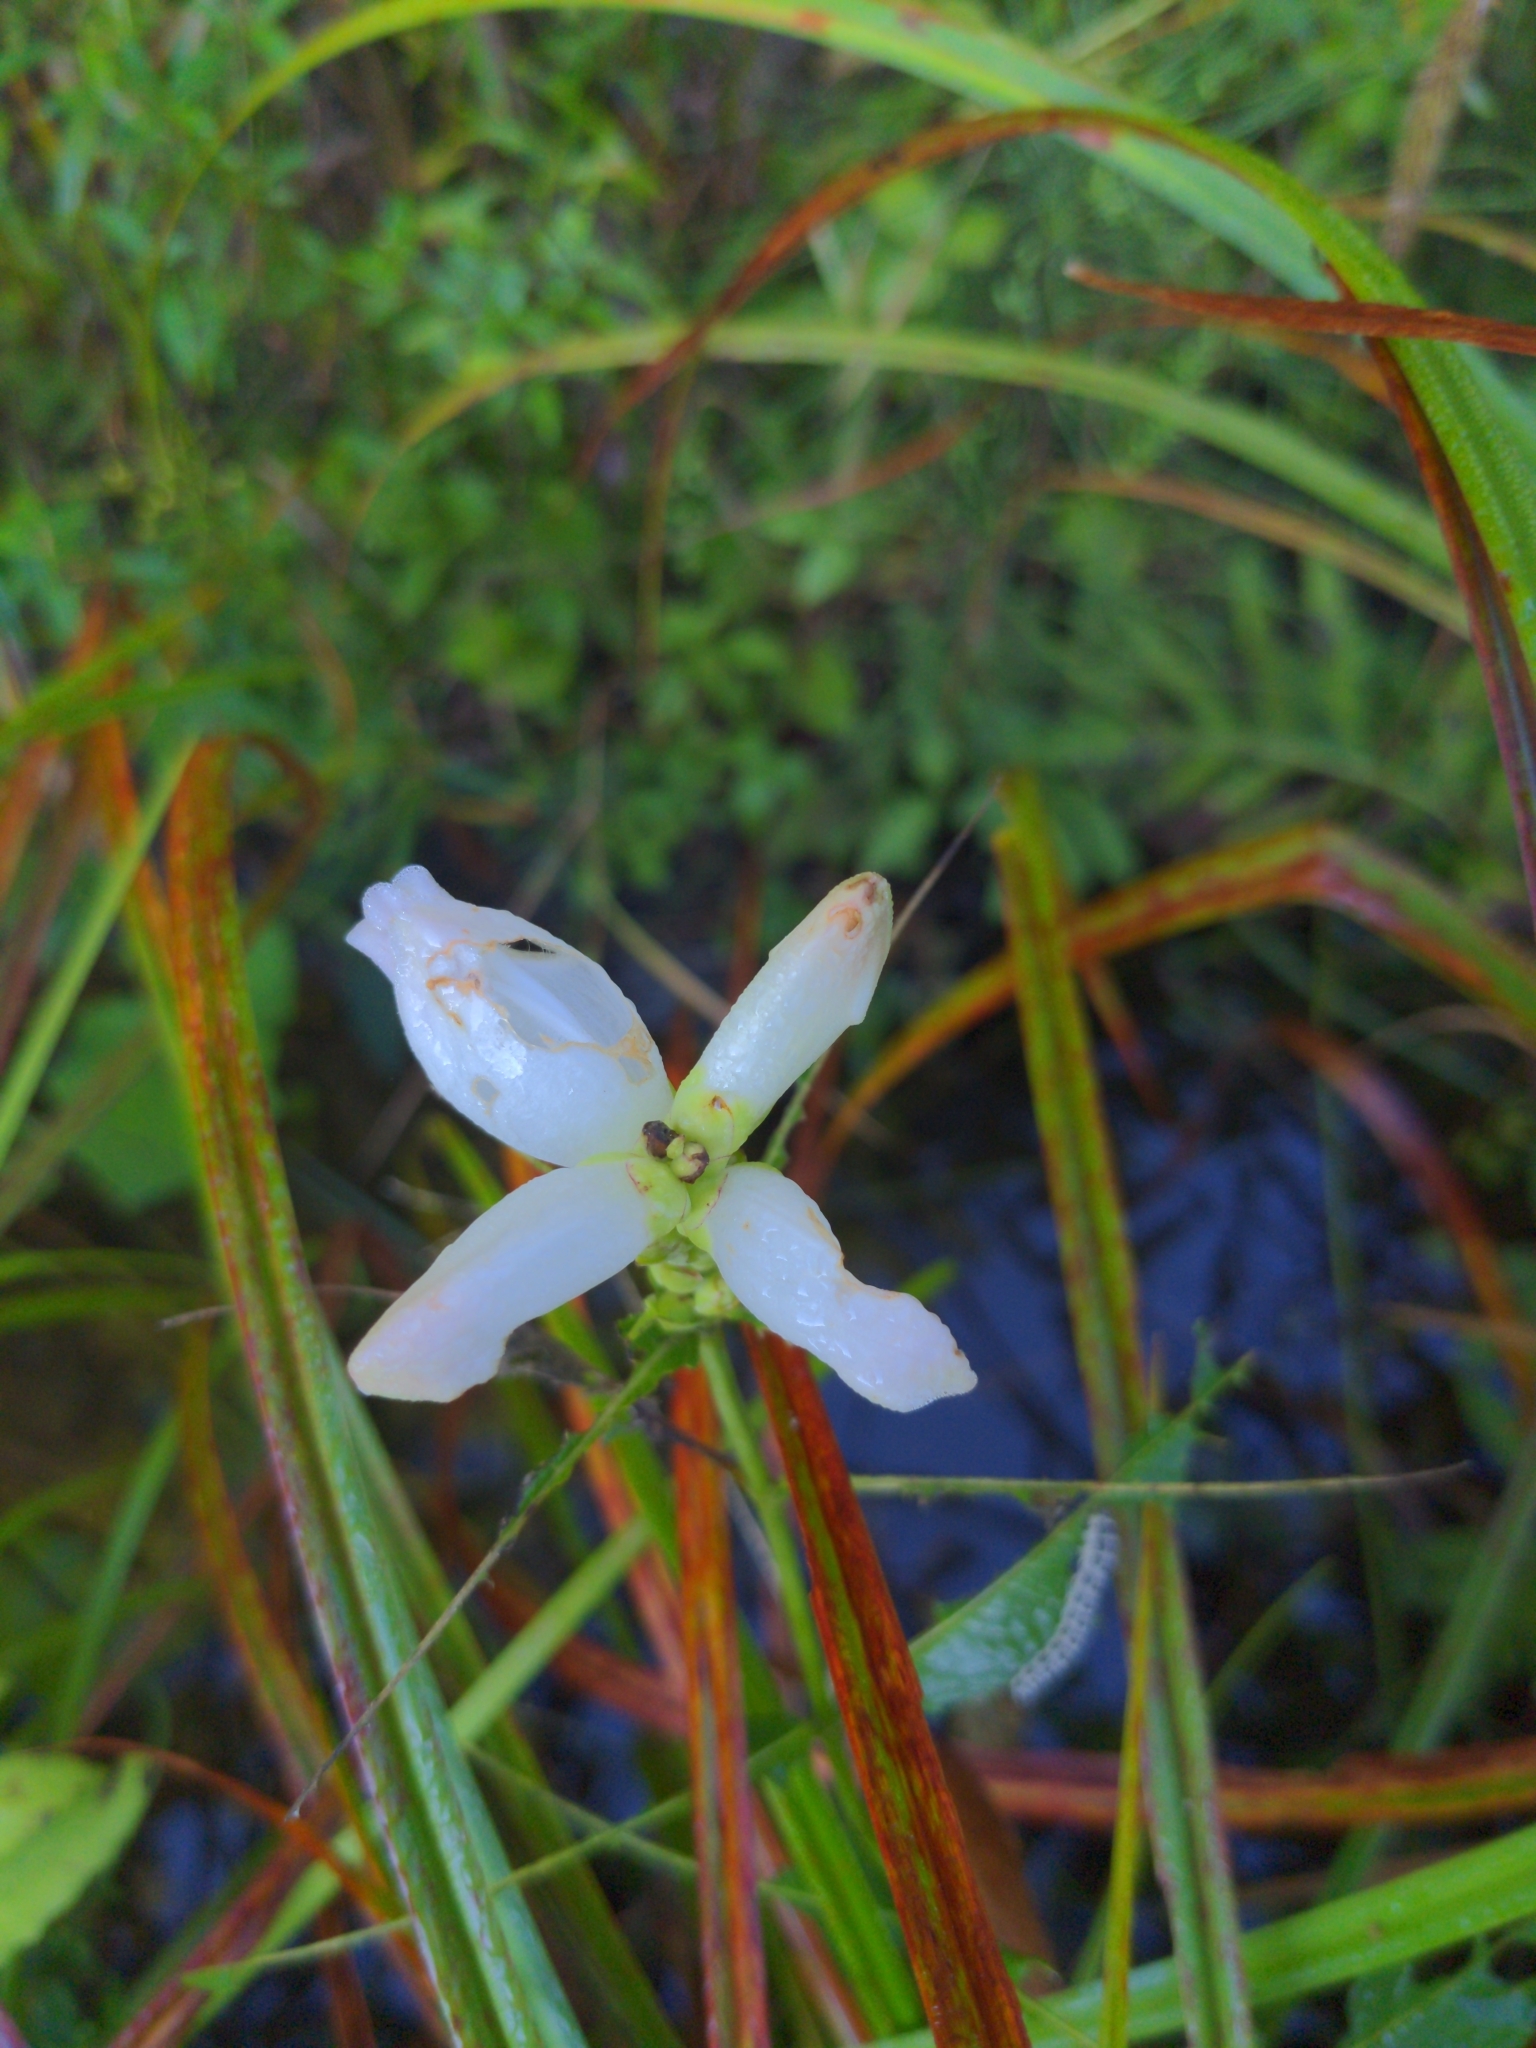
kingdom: Plantae
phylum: Tracheophyta
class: Magnoliopsida
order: Lamiales
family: Plantaginaceae
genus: Chelone
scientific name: Chelone glabra
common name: Snakehead
